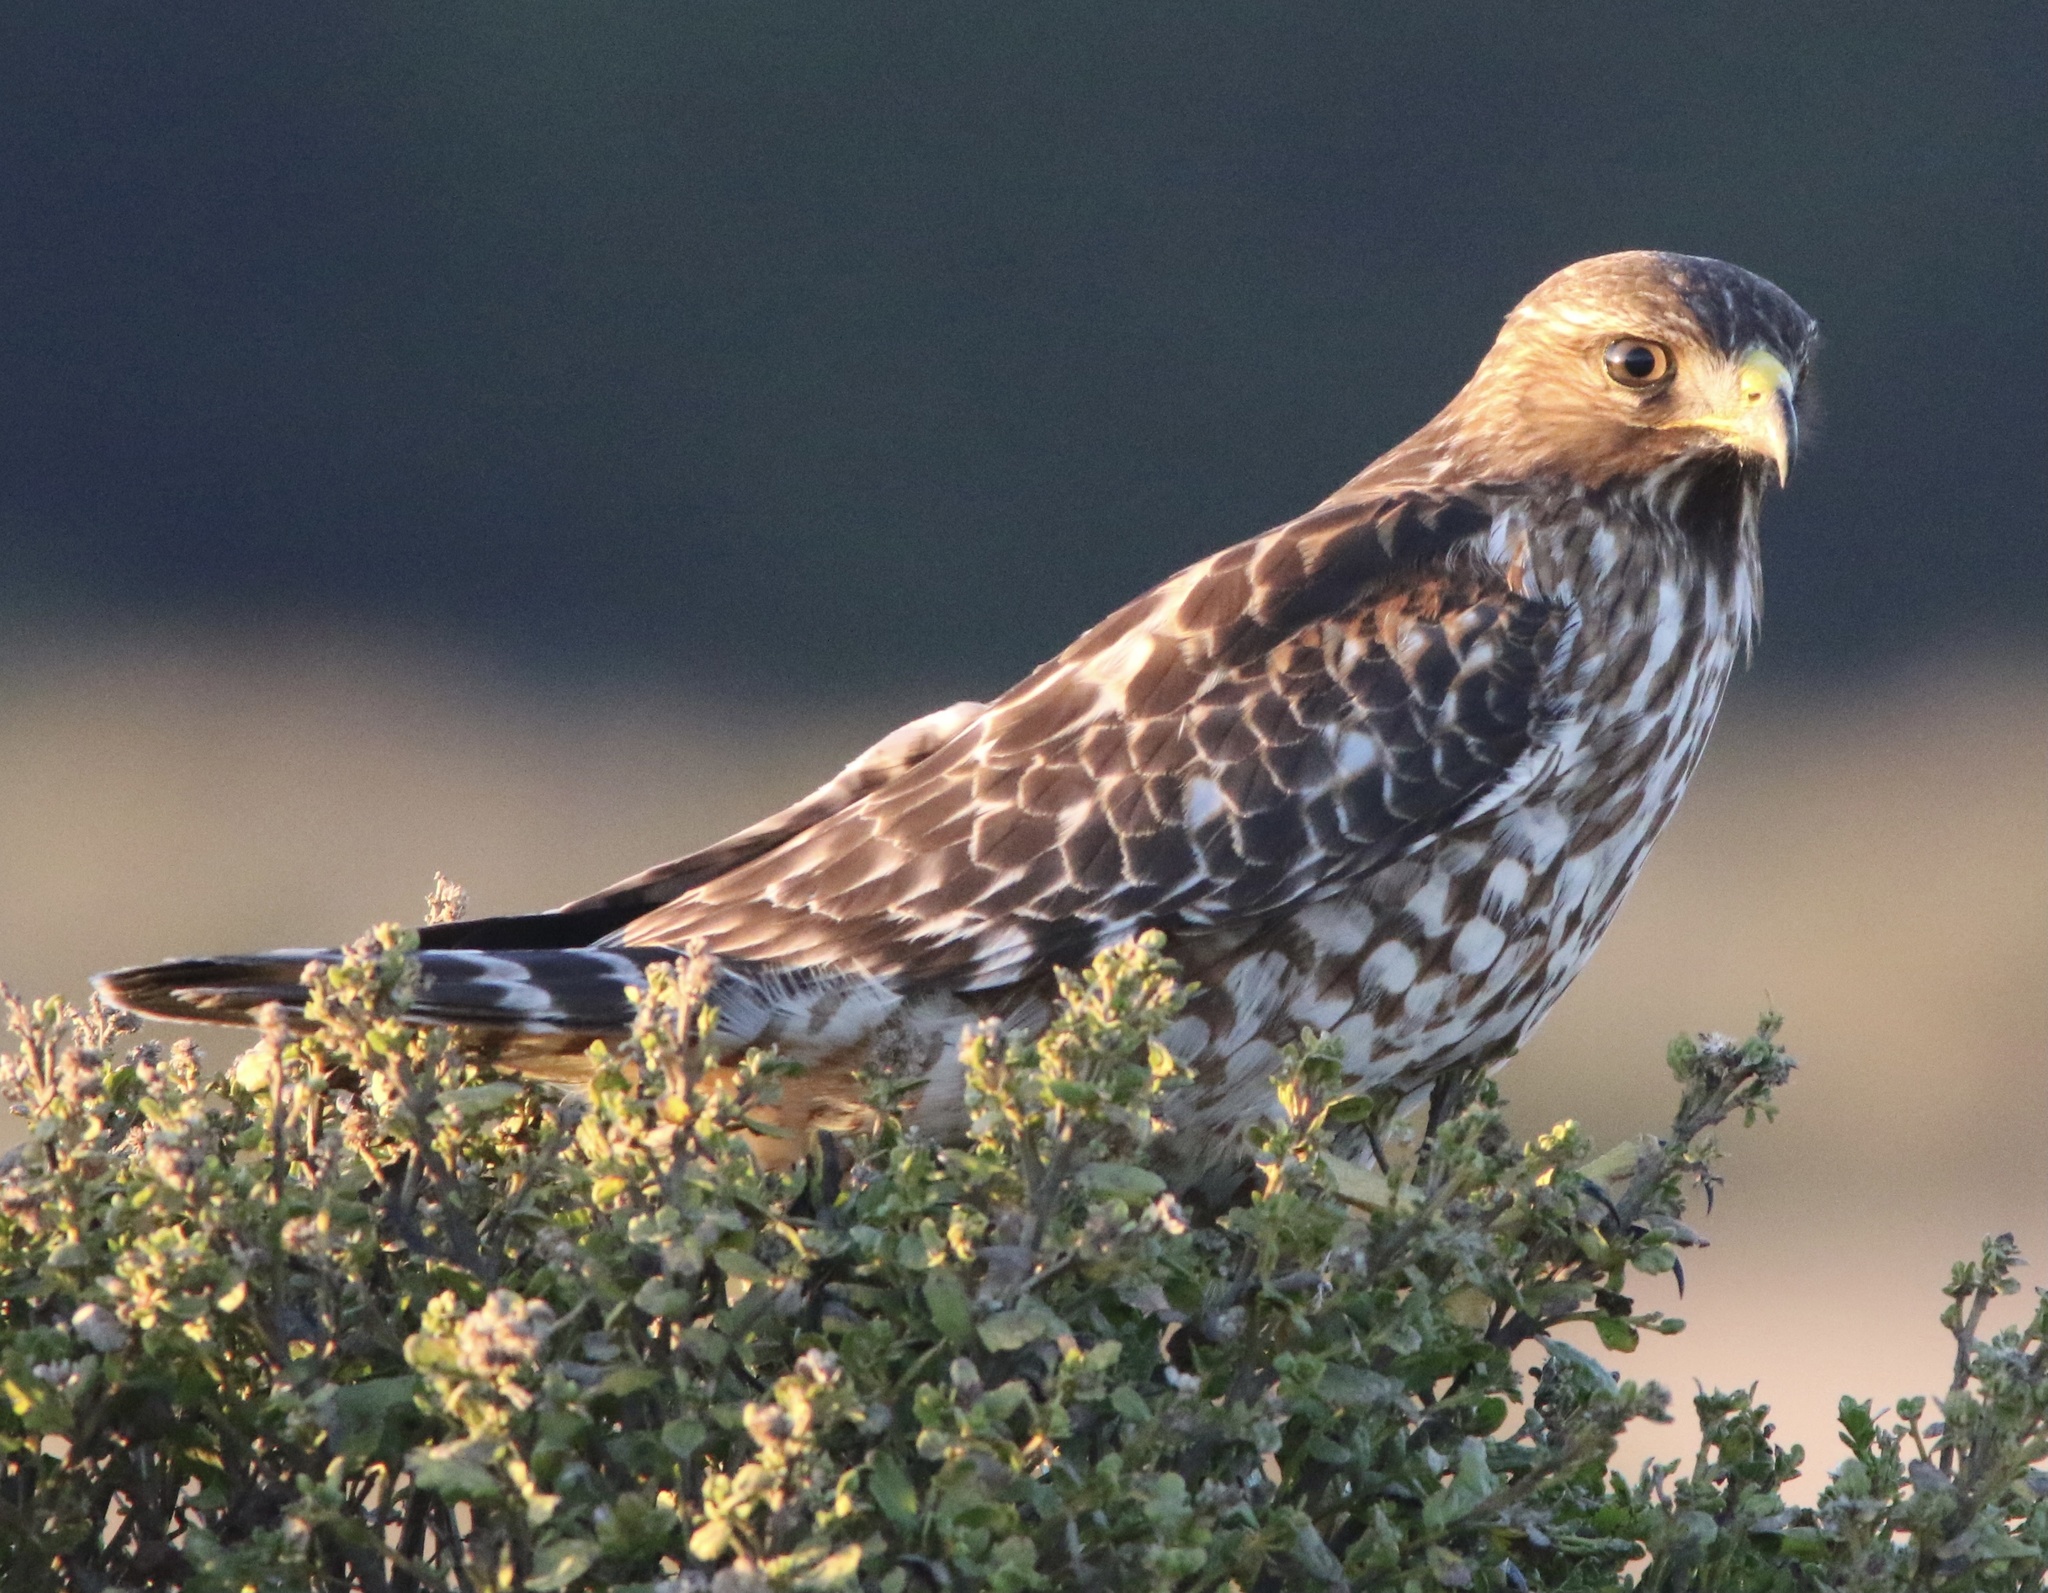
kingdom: Animalia
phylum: Chordata
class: Aves
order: Accipitriformes
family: Accipitridae
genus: Buteo
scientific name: Buteo lineatus
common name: Red-shouldered hawk
